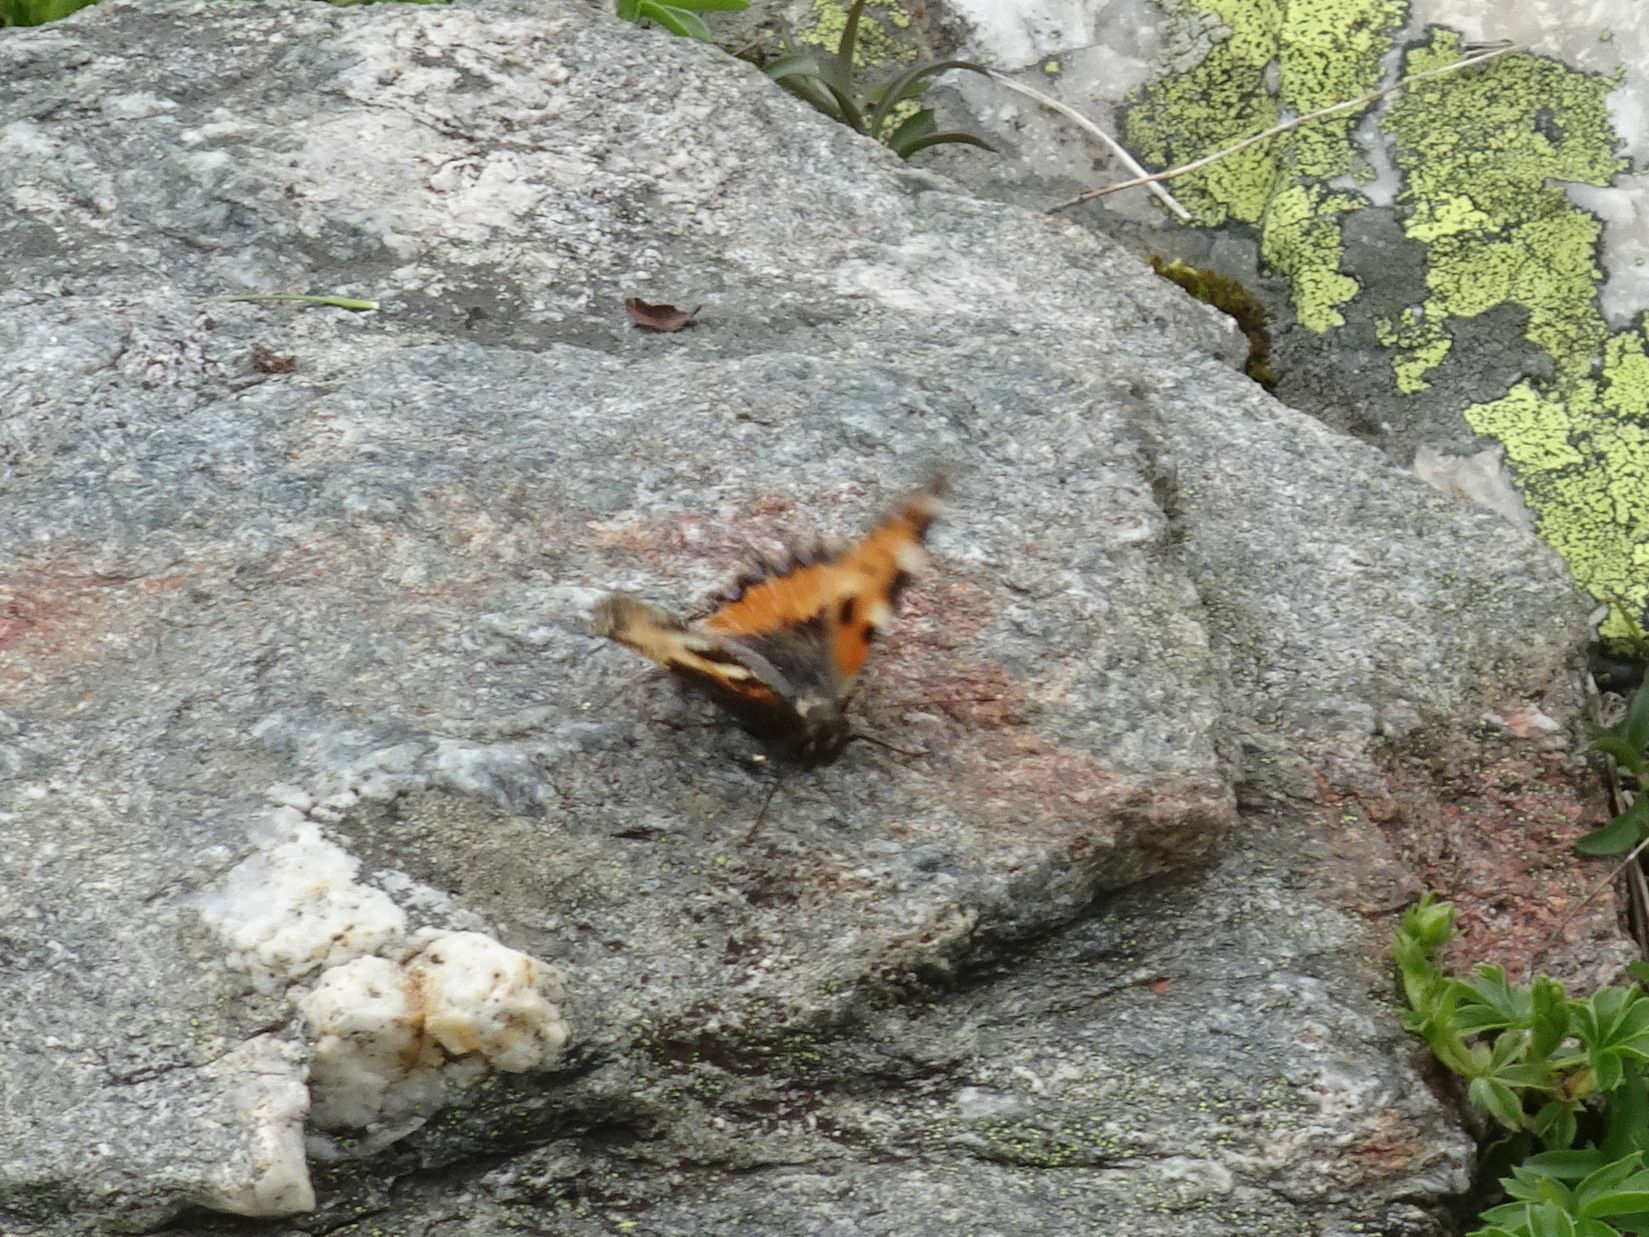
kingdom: Animalia
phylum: Arthropoda
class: Insecta
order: Lepidoptera
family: Nymphalidae
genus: Aglais
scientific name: Aglais urticae
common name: Small tortoiseshell
